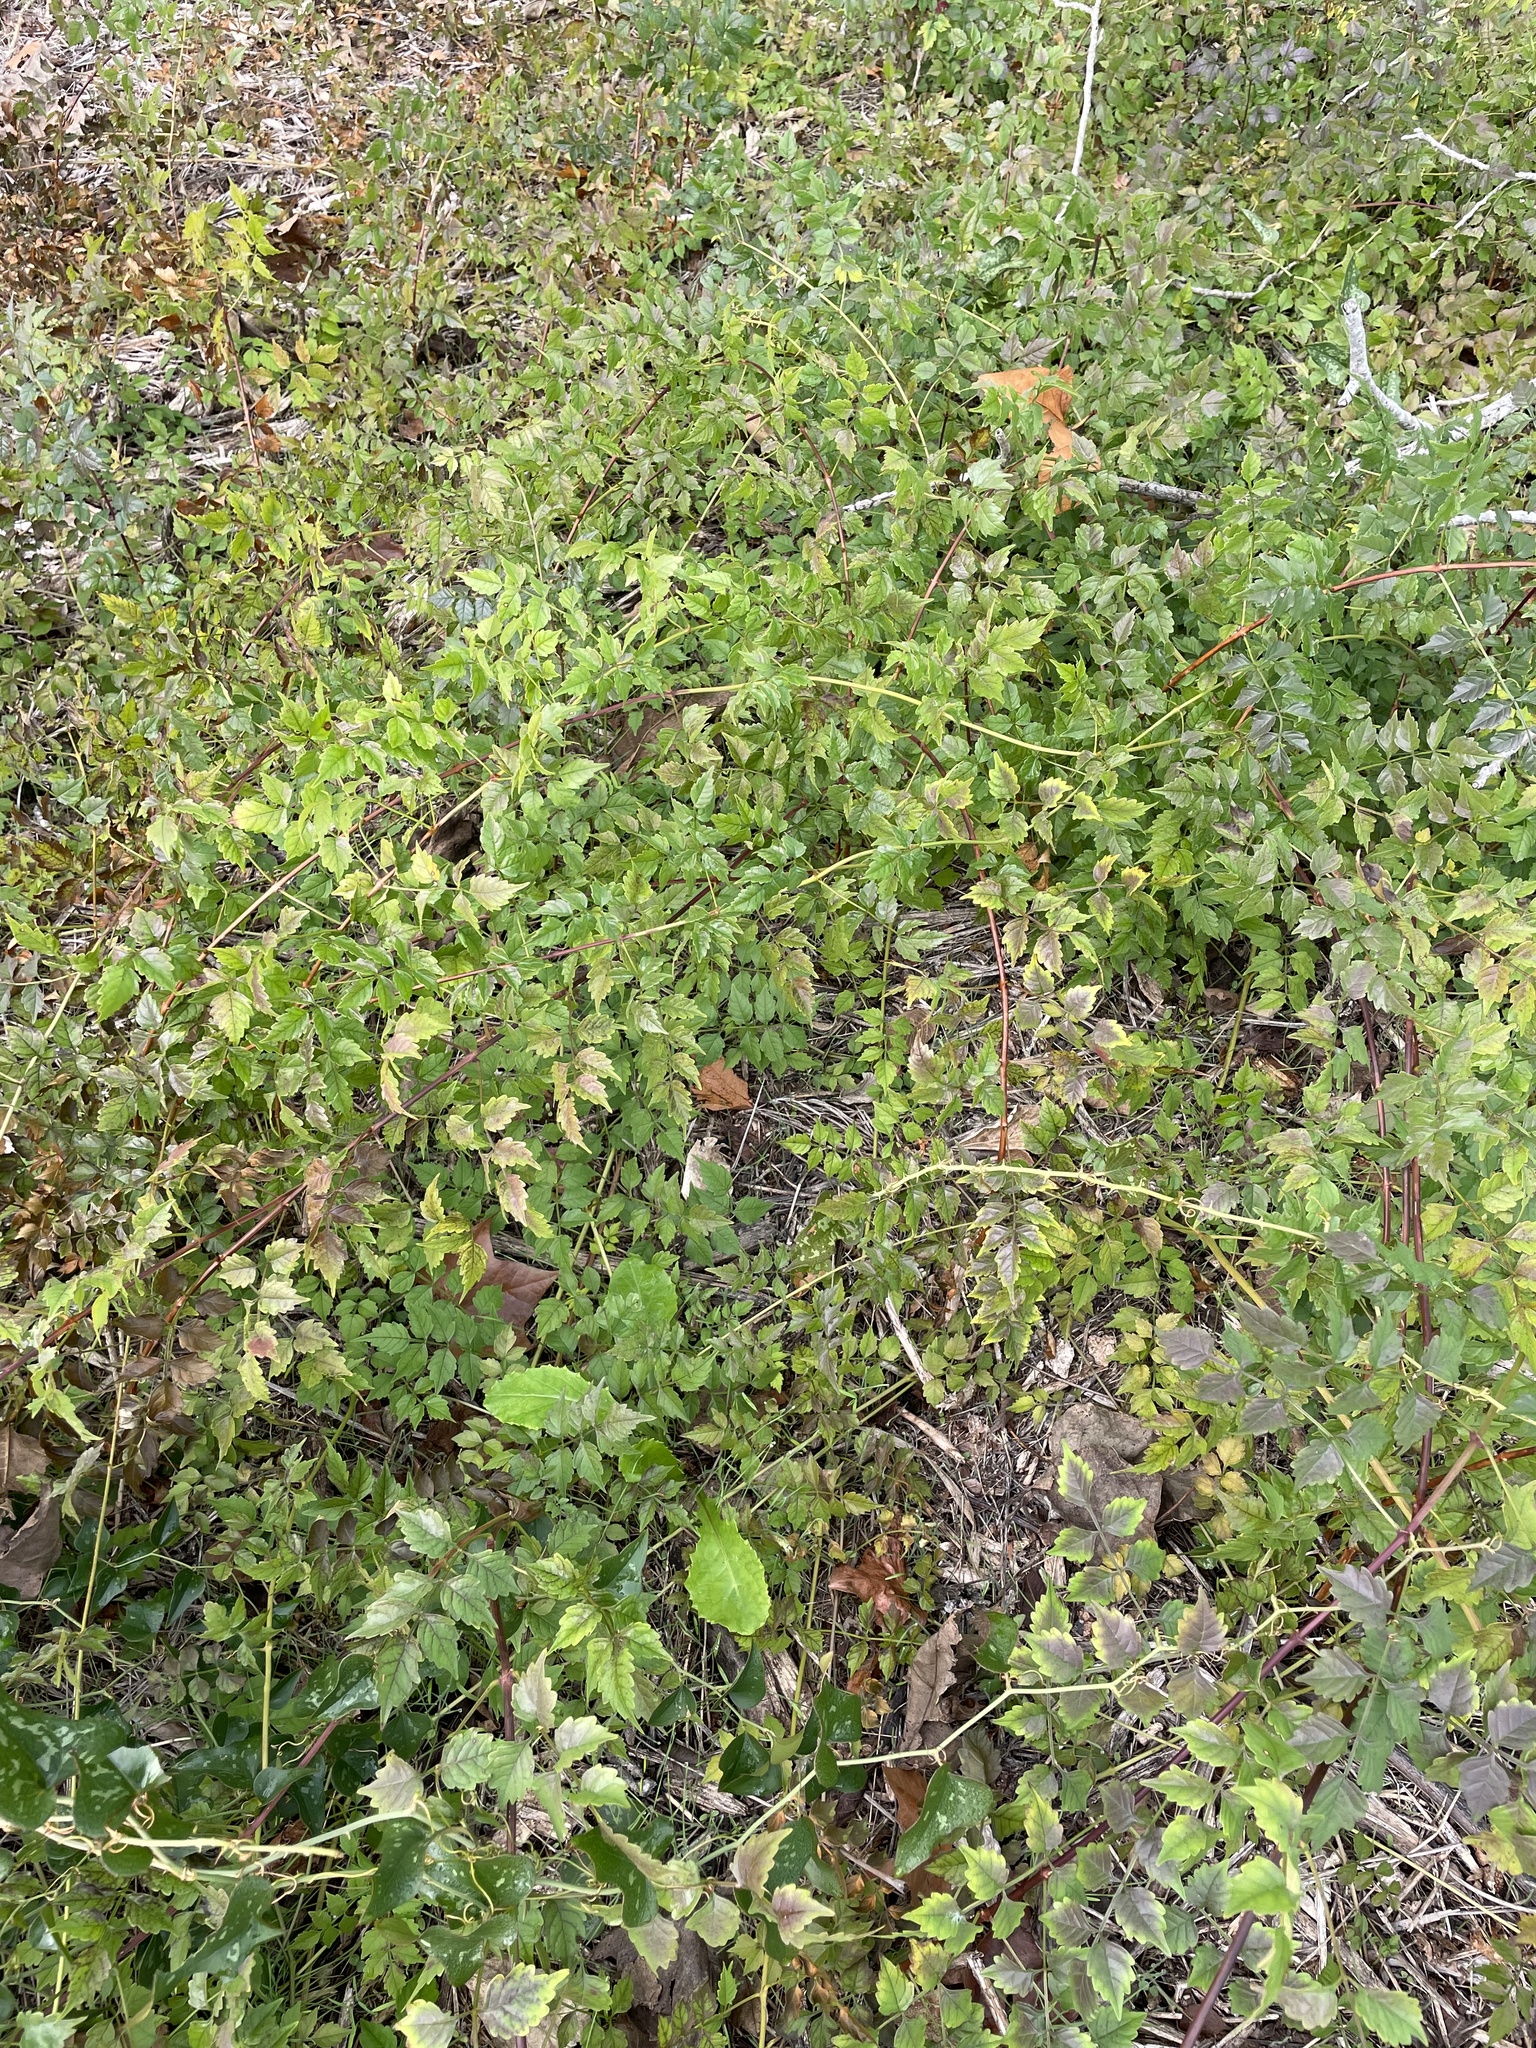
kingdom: Plantae
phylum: Tracheophyta
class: Magnoliopsida
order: Lamiales
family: Bignoniaceae
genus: Campsis
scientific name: Campsis radicans
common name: Trumpet-creeper
